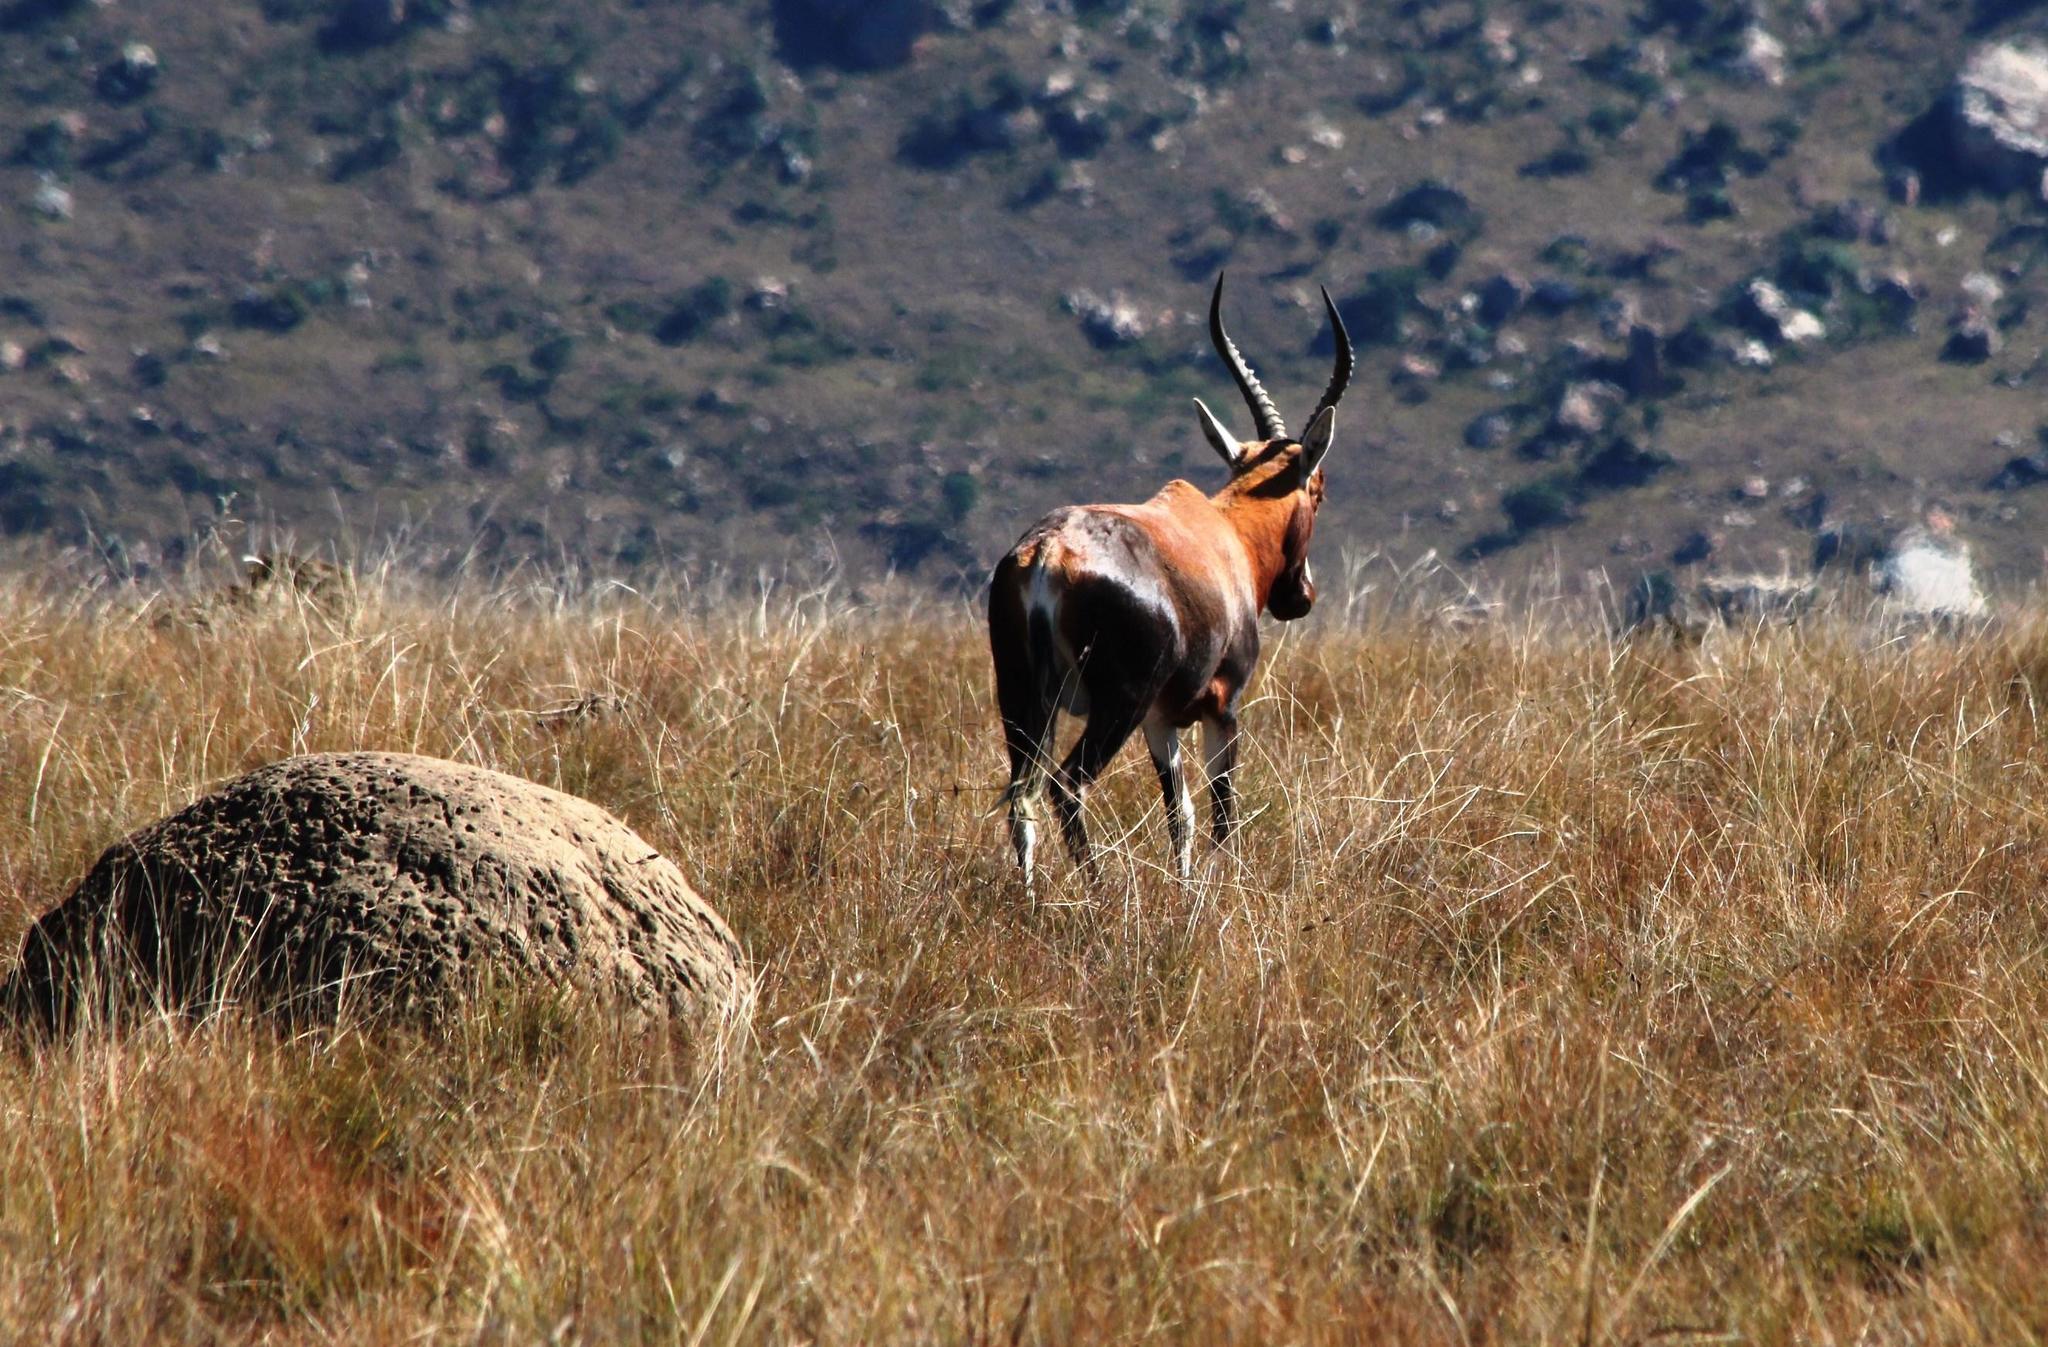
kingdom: Animalia
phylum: Chordata
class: Mammalia
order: Artiodactyla
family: Bovidae
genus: Damaliscus
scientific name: Damaliscus pygargus
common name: Bontebok
